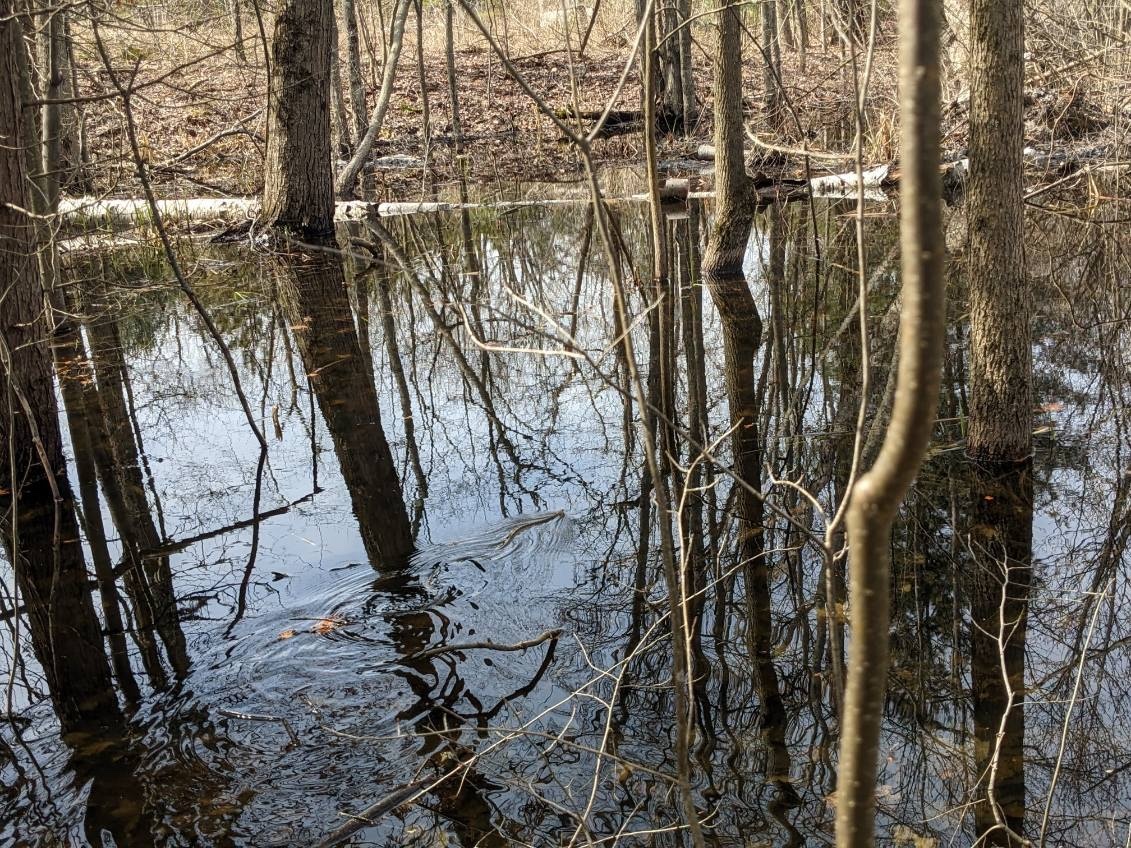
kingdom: Animalia
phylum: Chordata
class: Squamata
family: Colubridae
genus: Thamnophis
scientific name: Thamnophis sirtalis
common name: Common garter snake
